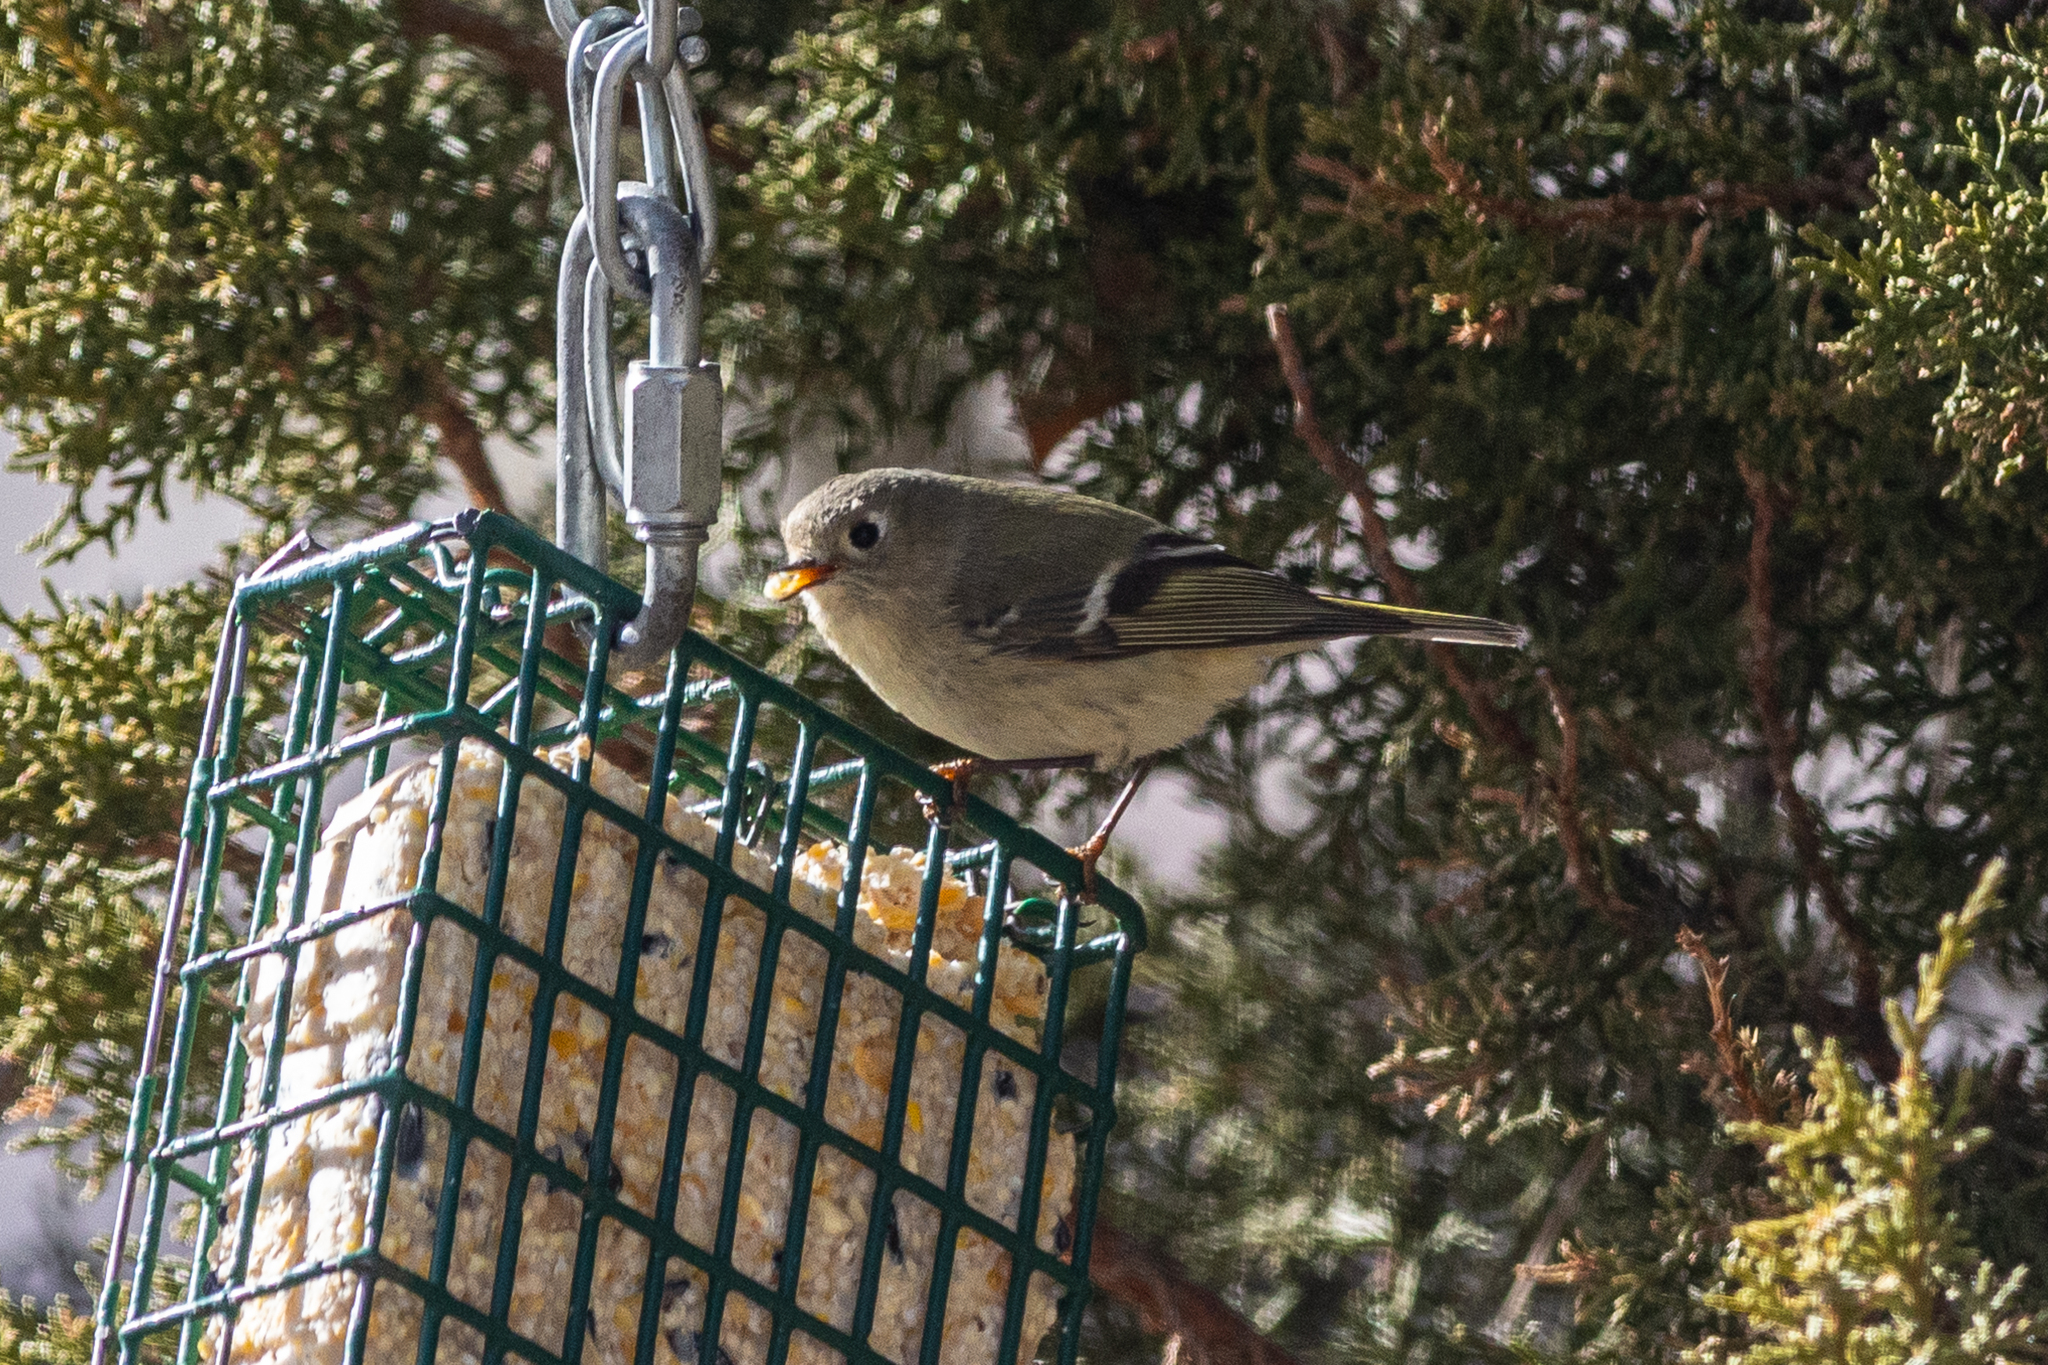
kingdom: Animalia
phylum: Chordata
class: Aves
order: Passeriformes
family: Regulidae
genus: Regulus
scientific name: Regulus calendula
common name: Ruby-crowned kinglet
